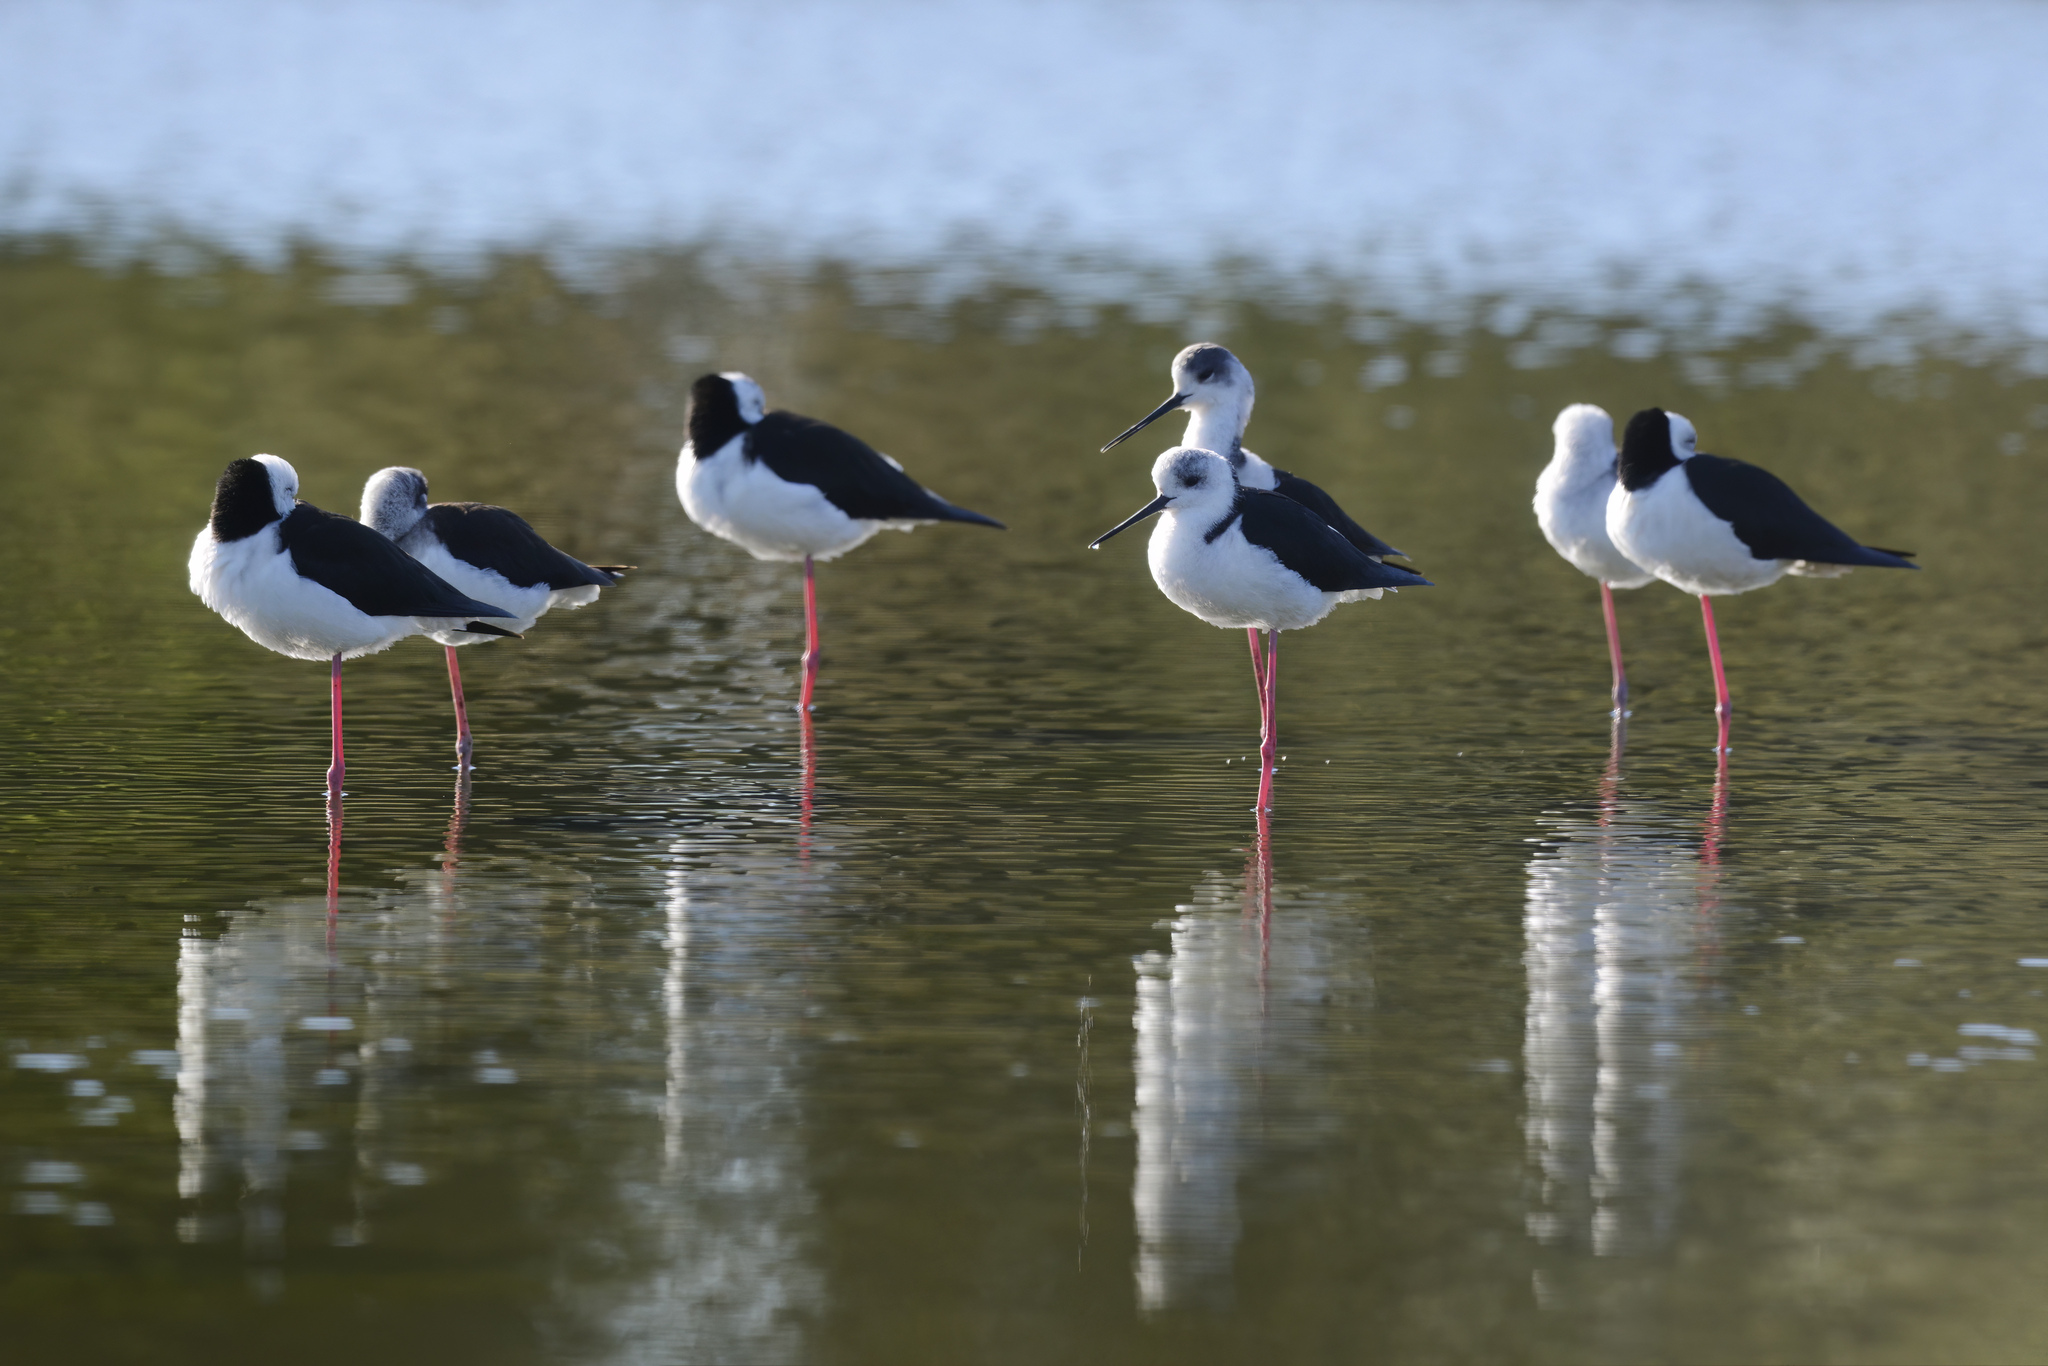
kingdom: Animalia
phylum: Chordata
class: Aves
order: Charadriiformes
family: Recurvirostridae
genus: Himantopus
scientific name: Himantopus leucocephalus
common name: White-headed stilt
